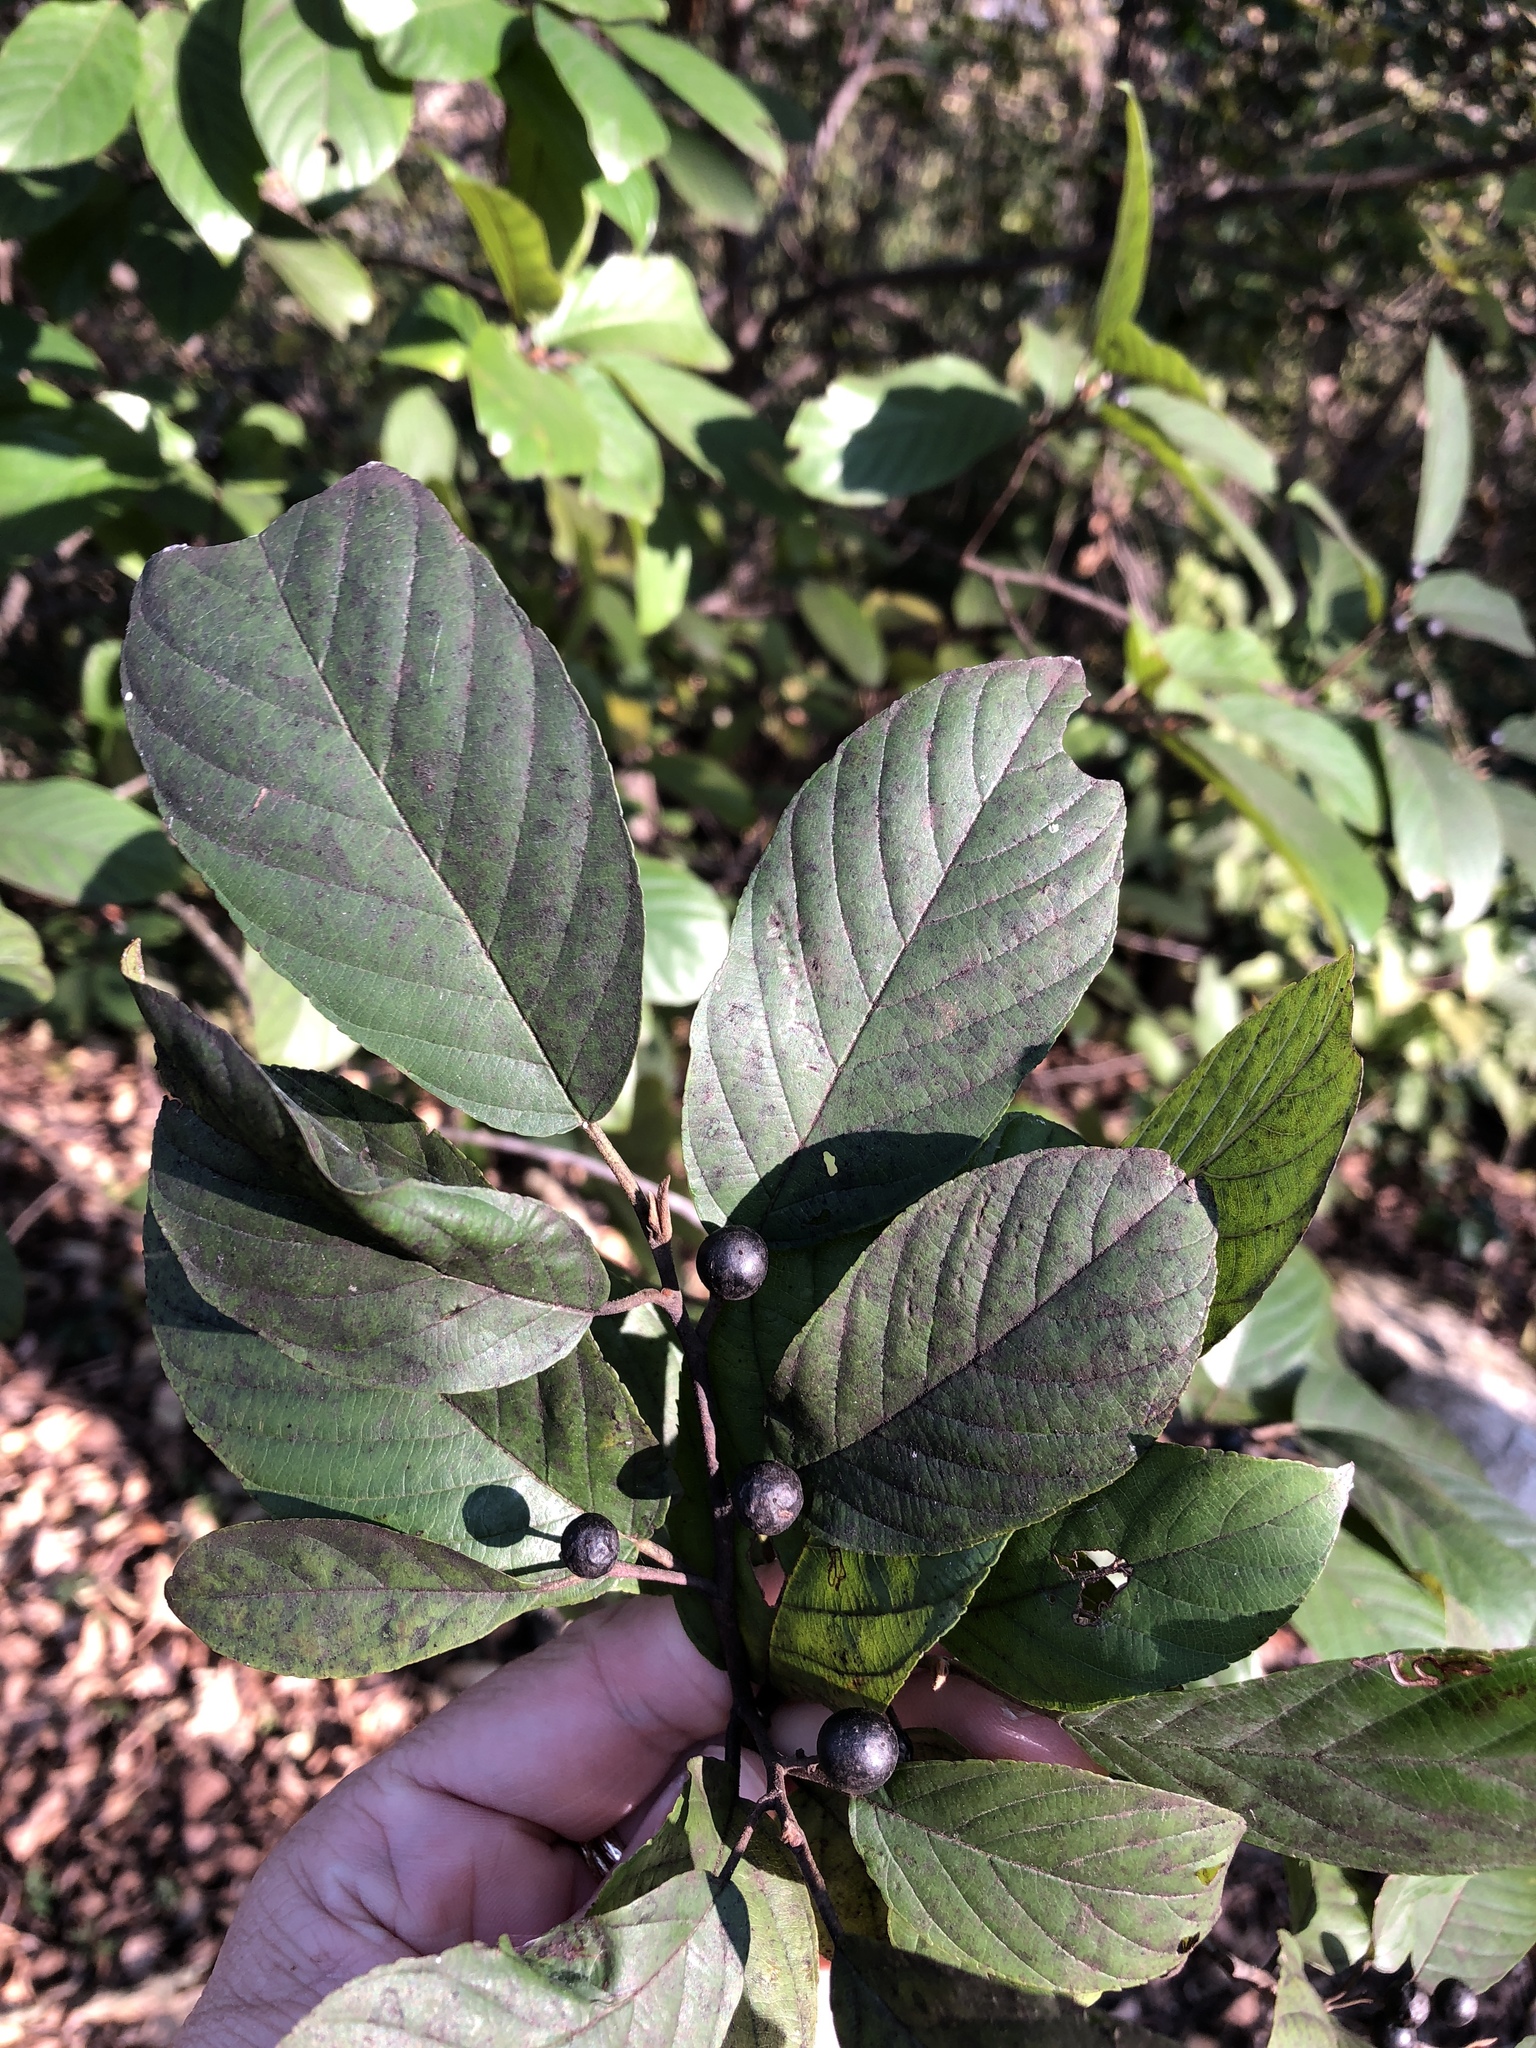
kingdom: Plantae
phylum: Tracheophyta
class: Magnoliopsida
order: Rosales
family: Rhamnaceae
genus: Frangula
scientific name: Frangula caroliniana
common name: Carolina buckthorn
